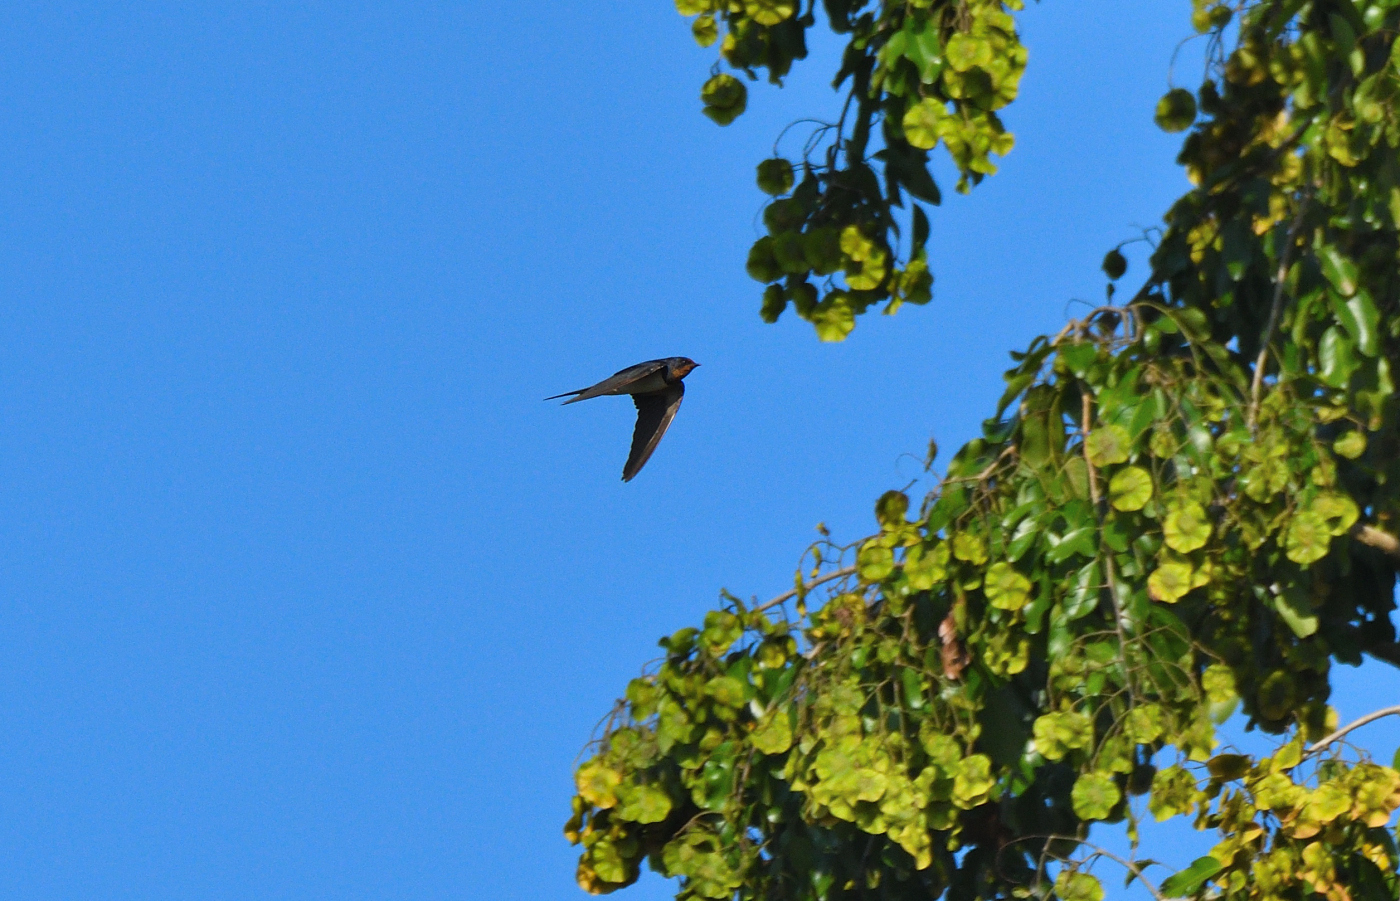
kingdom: Animalia
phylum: Chordata
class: Aves
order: Passeriformes
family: Hirundinidae
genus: Hirundo
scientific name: Hirundo rustica
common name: Barn swallow
